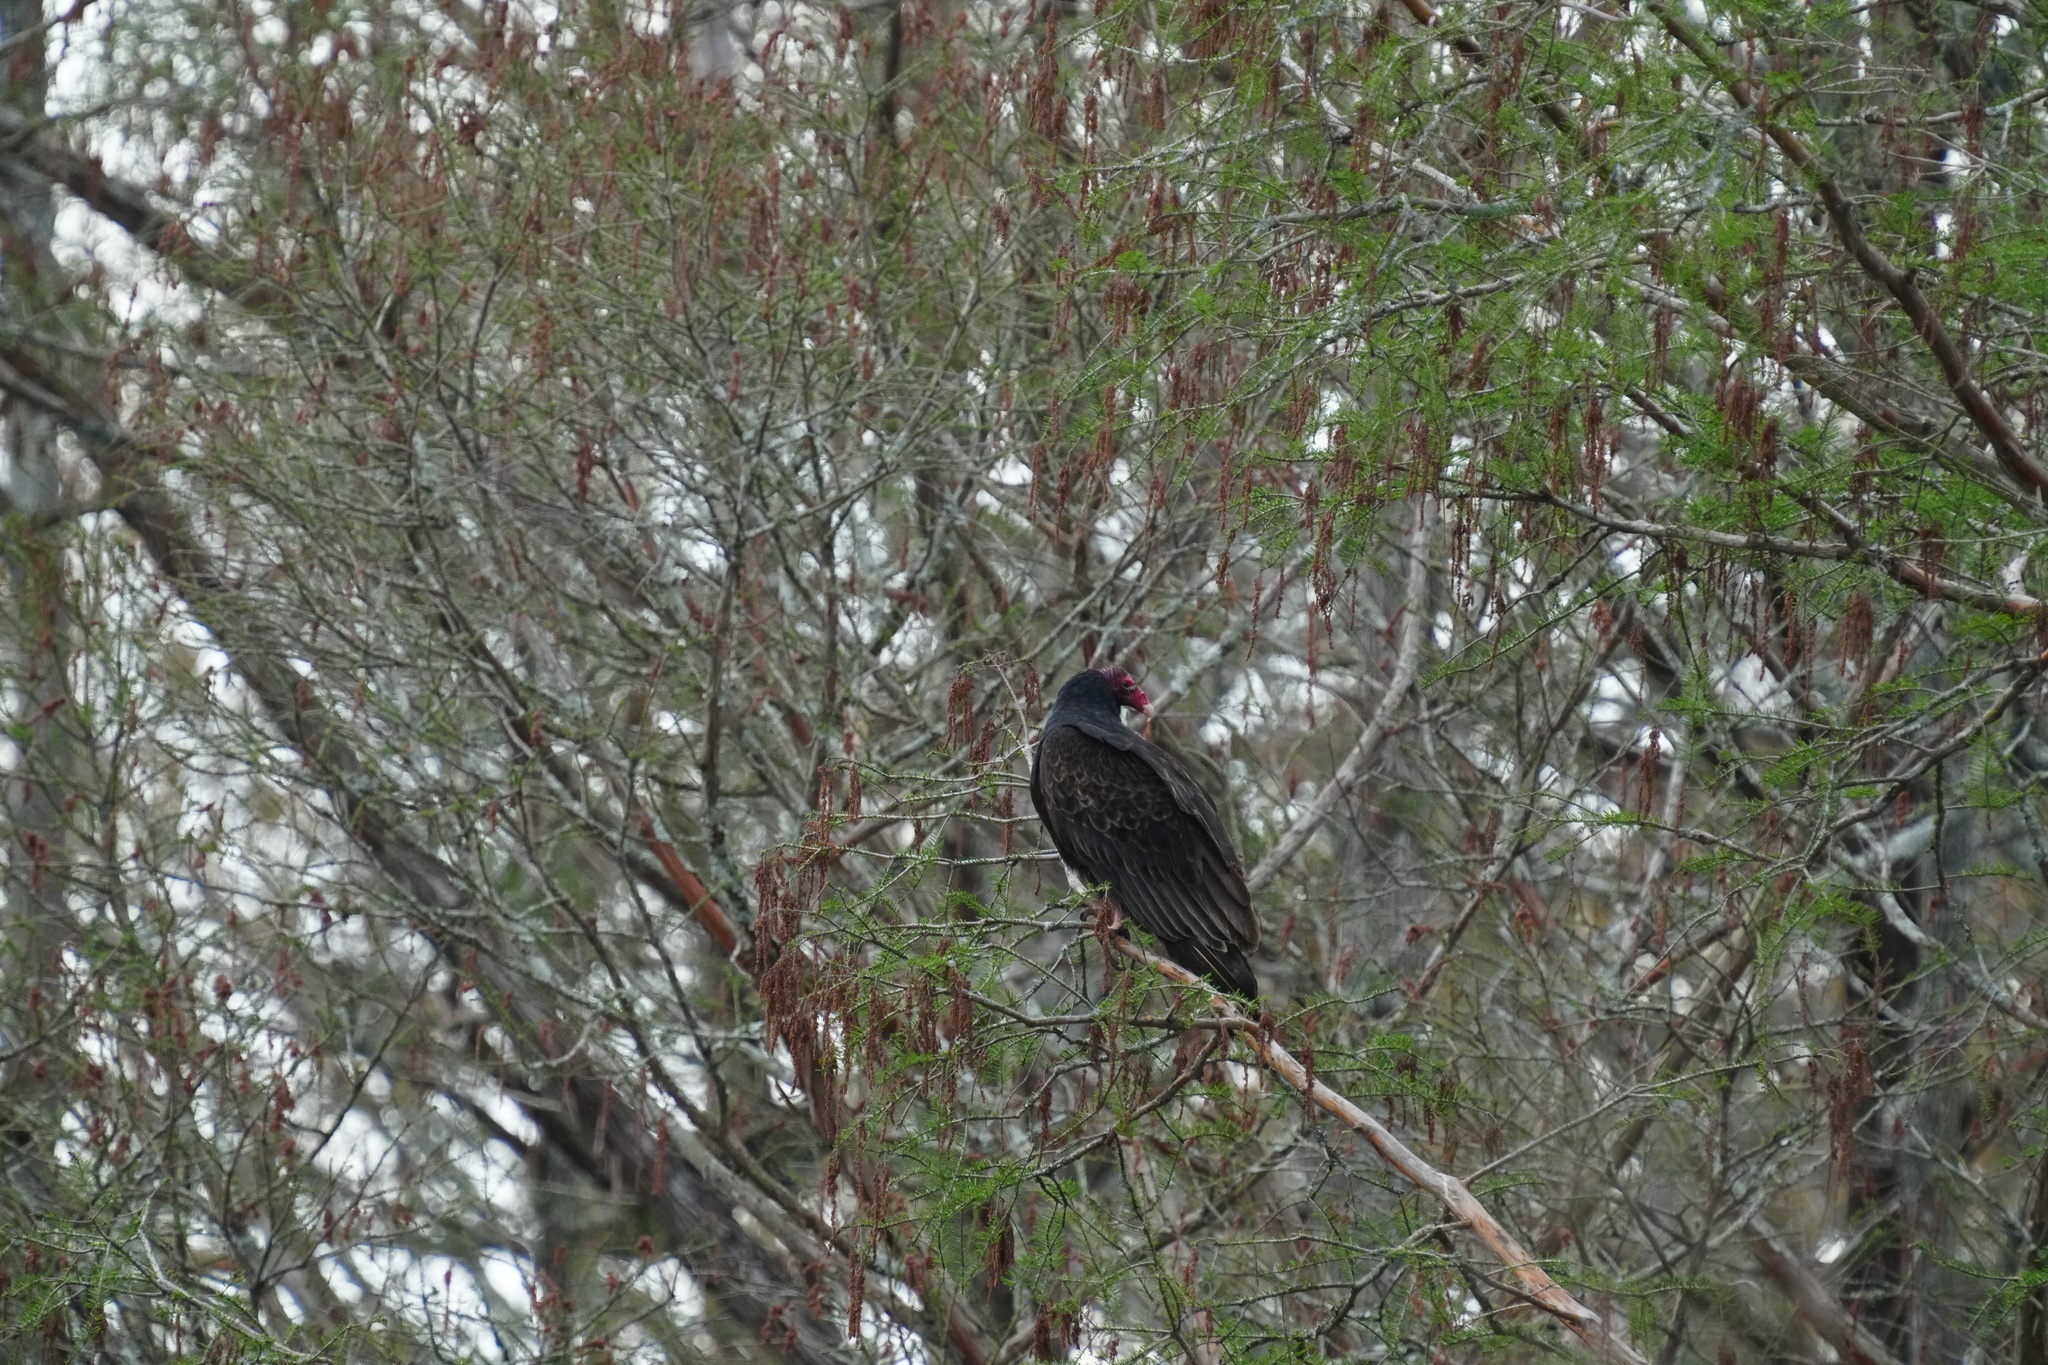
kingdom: Animalia
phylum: Chordata
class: Aves
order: Accipitriformes
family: Cathartidae
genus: Cathartes
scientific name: Cathartes aura
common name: Turkey vulture
